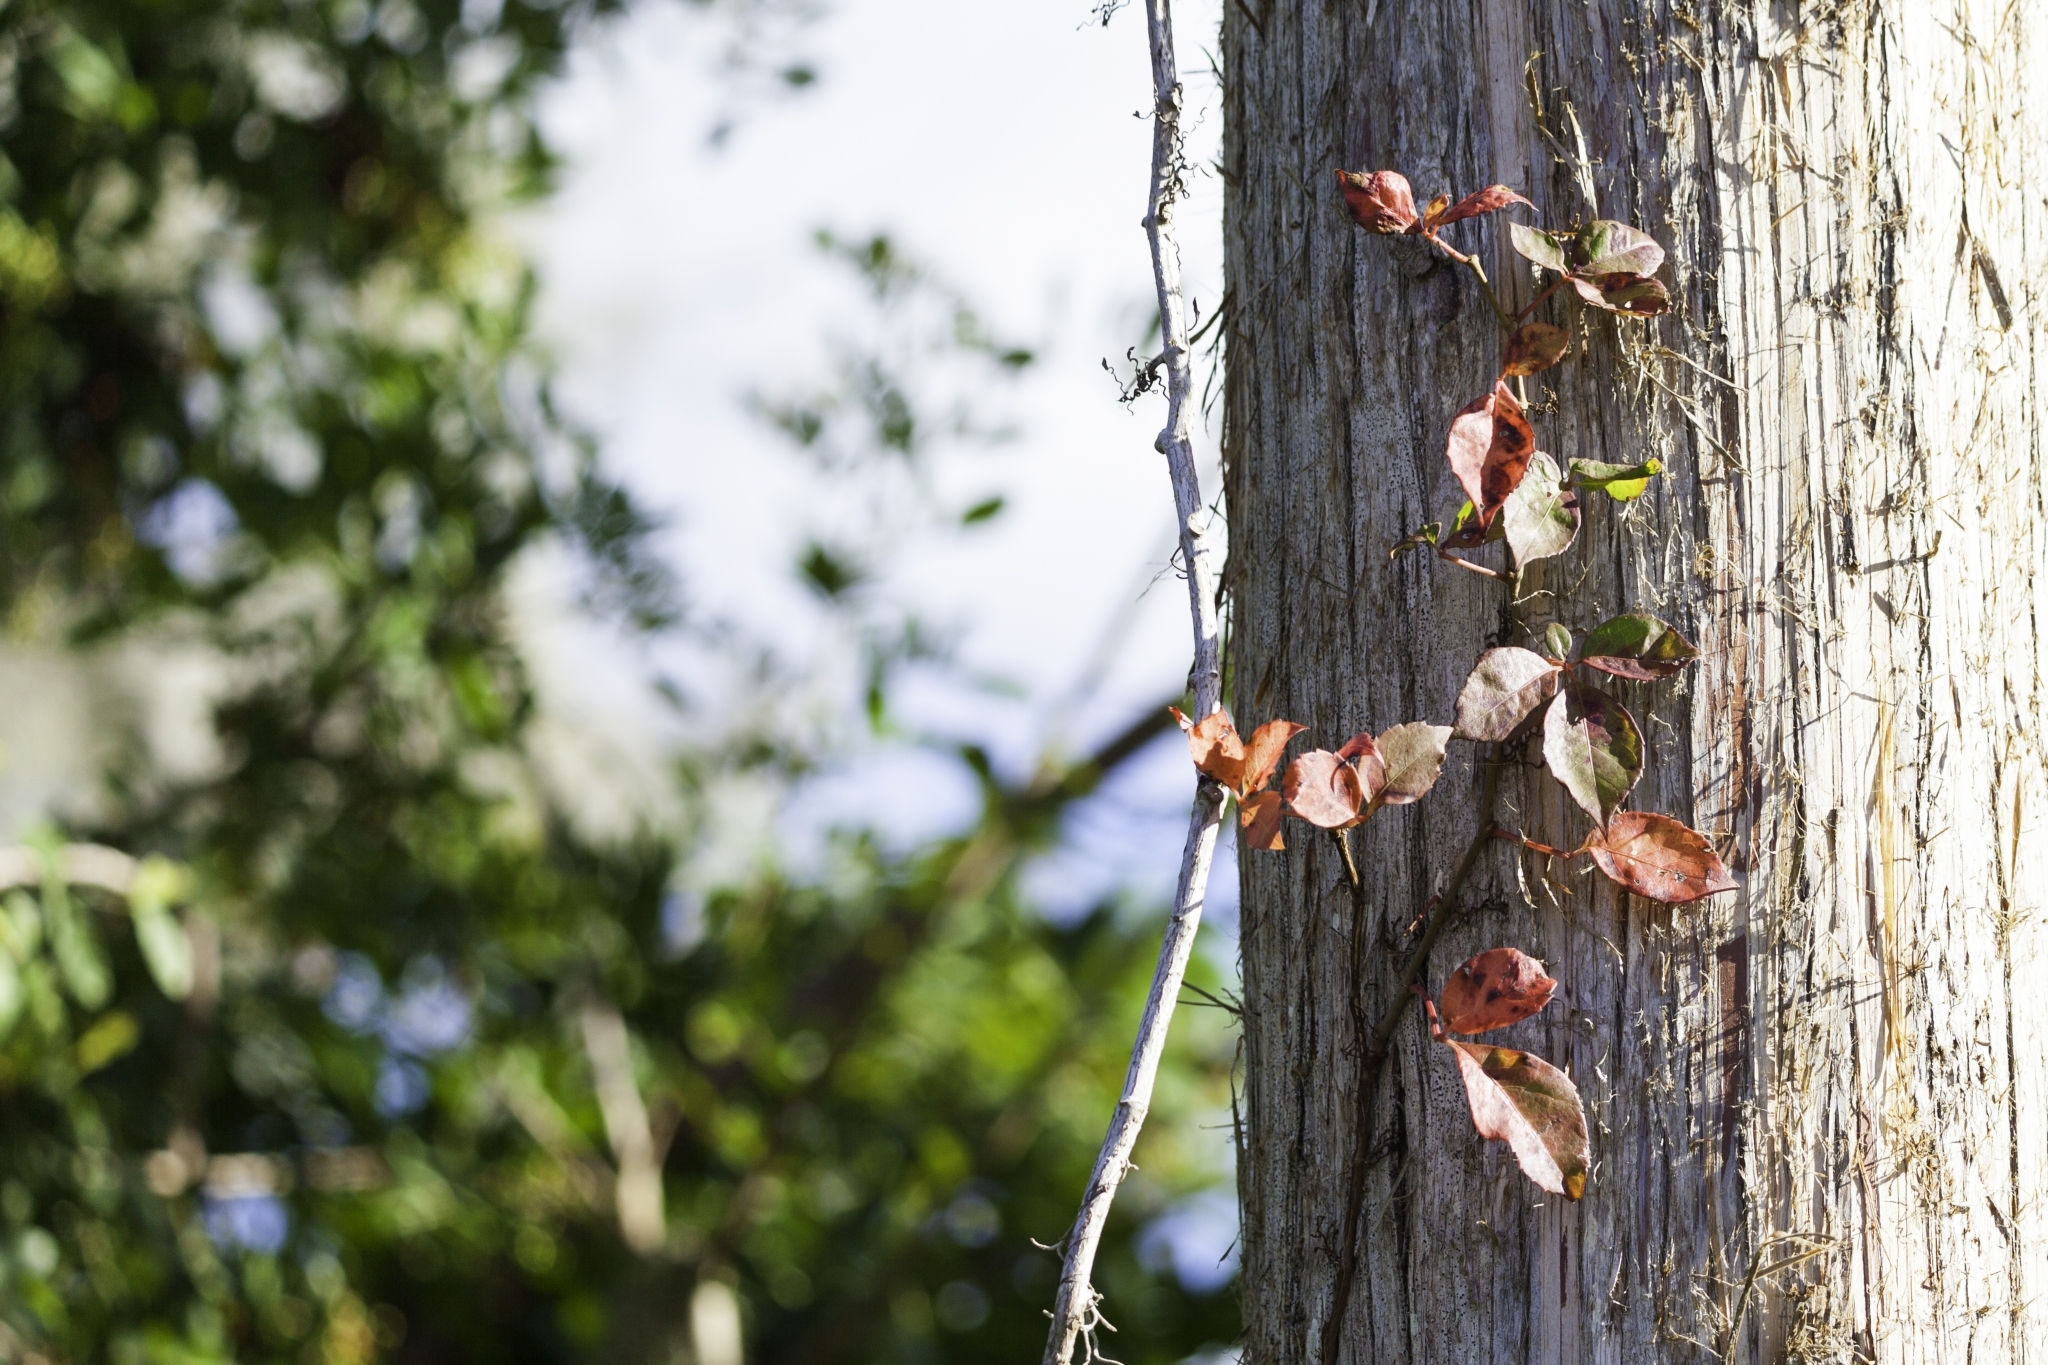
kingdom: Plantae
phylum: Tracheophyta
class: Magnoliopsida
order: Vitales
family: Vitaceae
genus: Parthenocissus
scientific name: Parthenocissus quinquefolia
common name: Virginia-creeper
